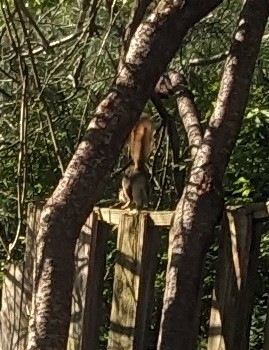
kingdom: Animalia
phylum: Chordata
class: Mammalia
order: Rodentia
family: Sciuridae
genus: Tamiasciurus
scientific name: Tamiasciurus hudsonicus
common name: Red squirrel
